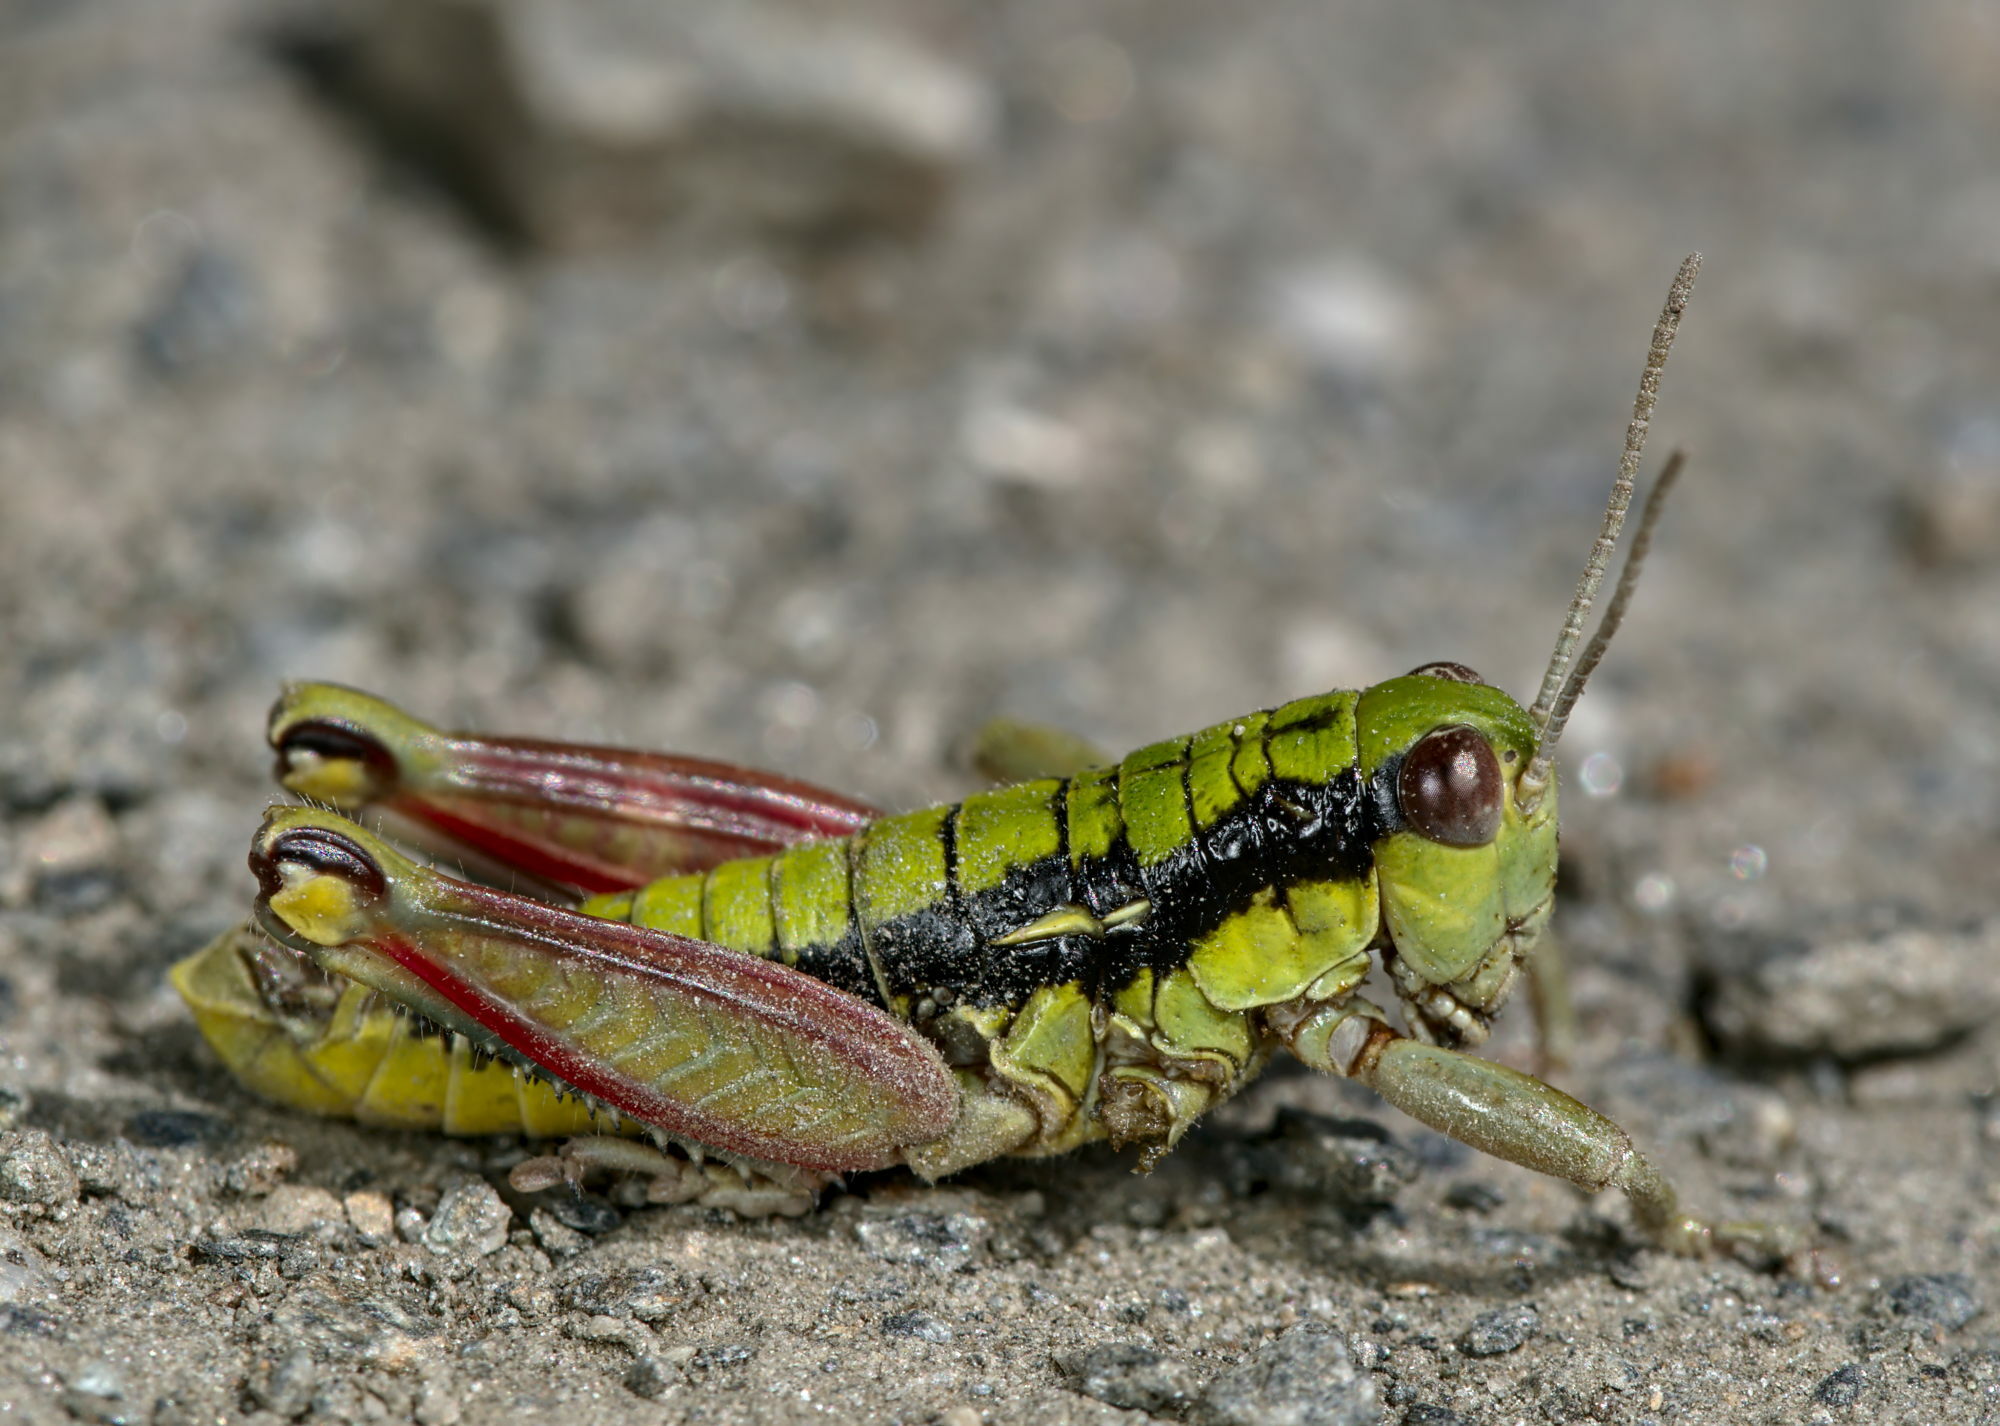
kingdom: Animalia
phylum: Arthropoda
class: Insecta
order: Orthoptera
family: Acrididae
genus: Epipodisma
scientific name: Epipodisma pedemontana
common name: Piedmont mountain grasshopper
